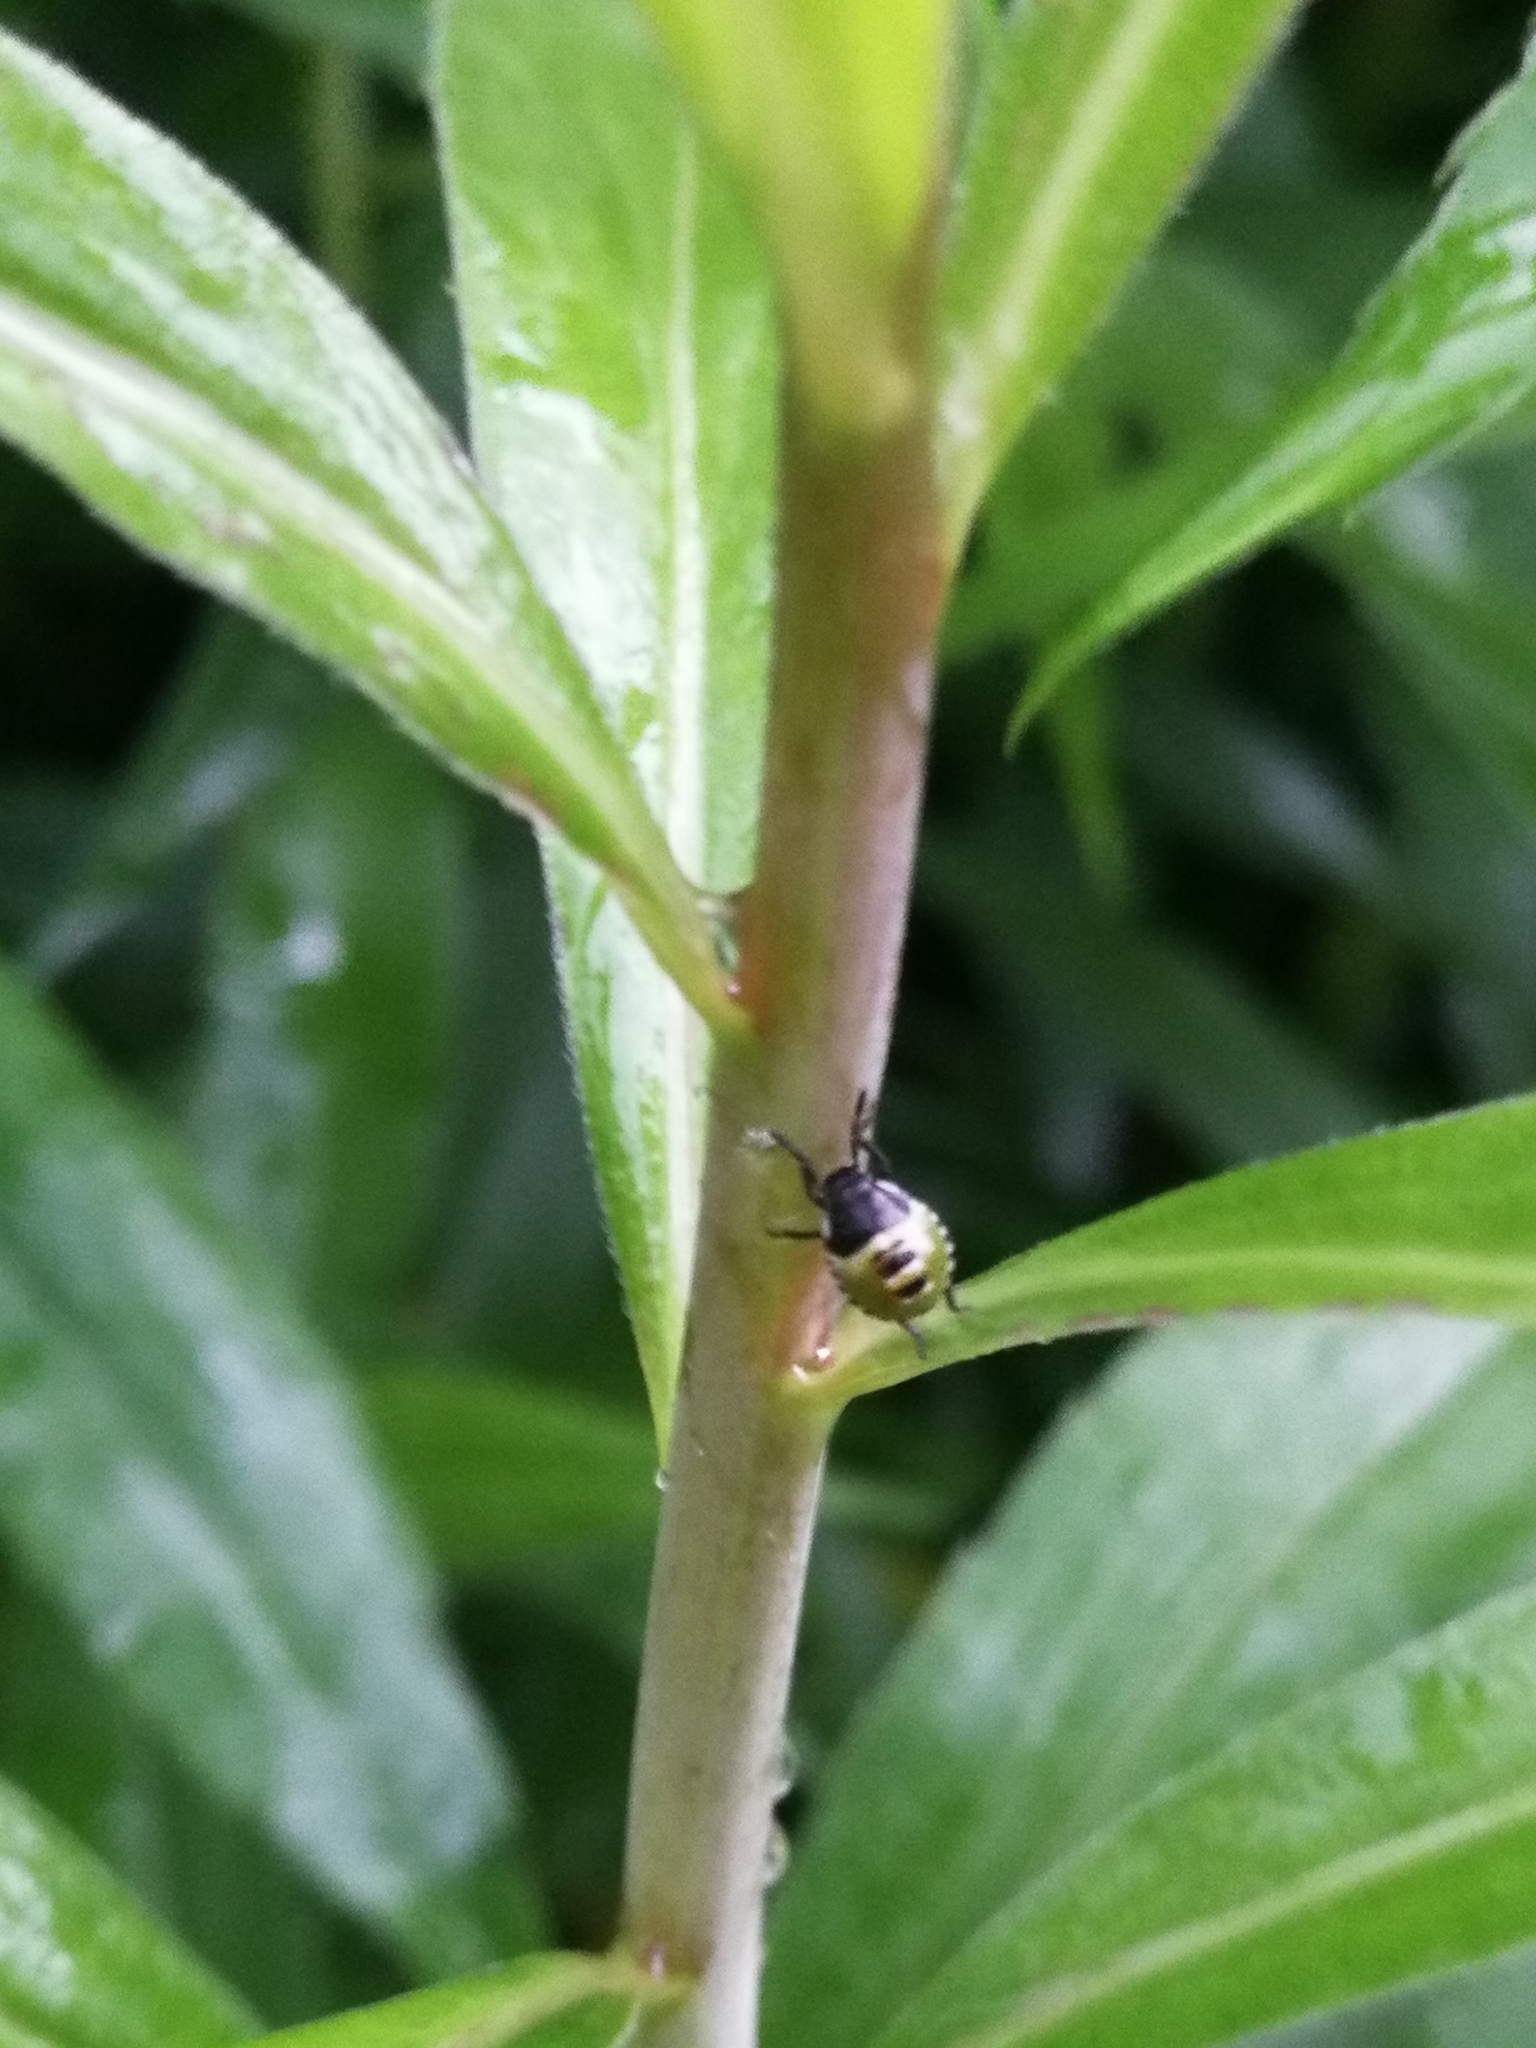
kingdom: Animalia
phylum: Arthropoda
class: Insecta
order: Hemiptera
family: Pentatomidae
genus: Palomena
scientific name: Palomena prasina
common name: Green shieldbug
